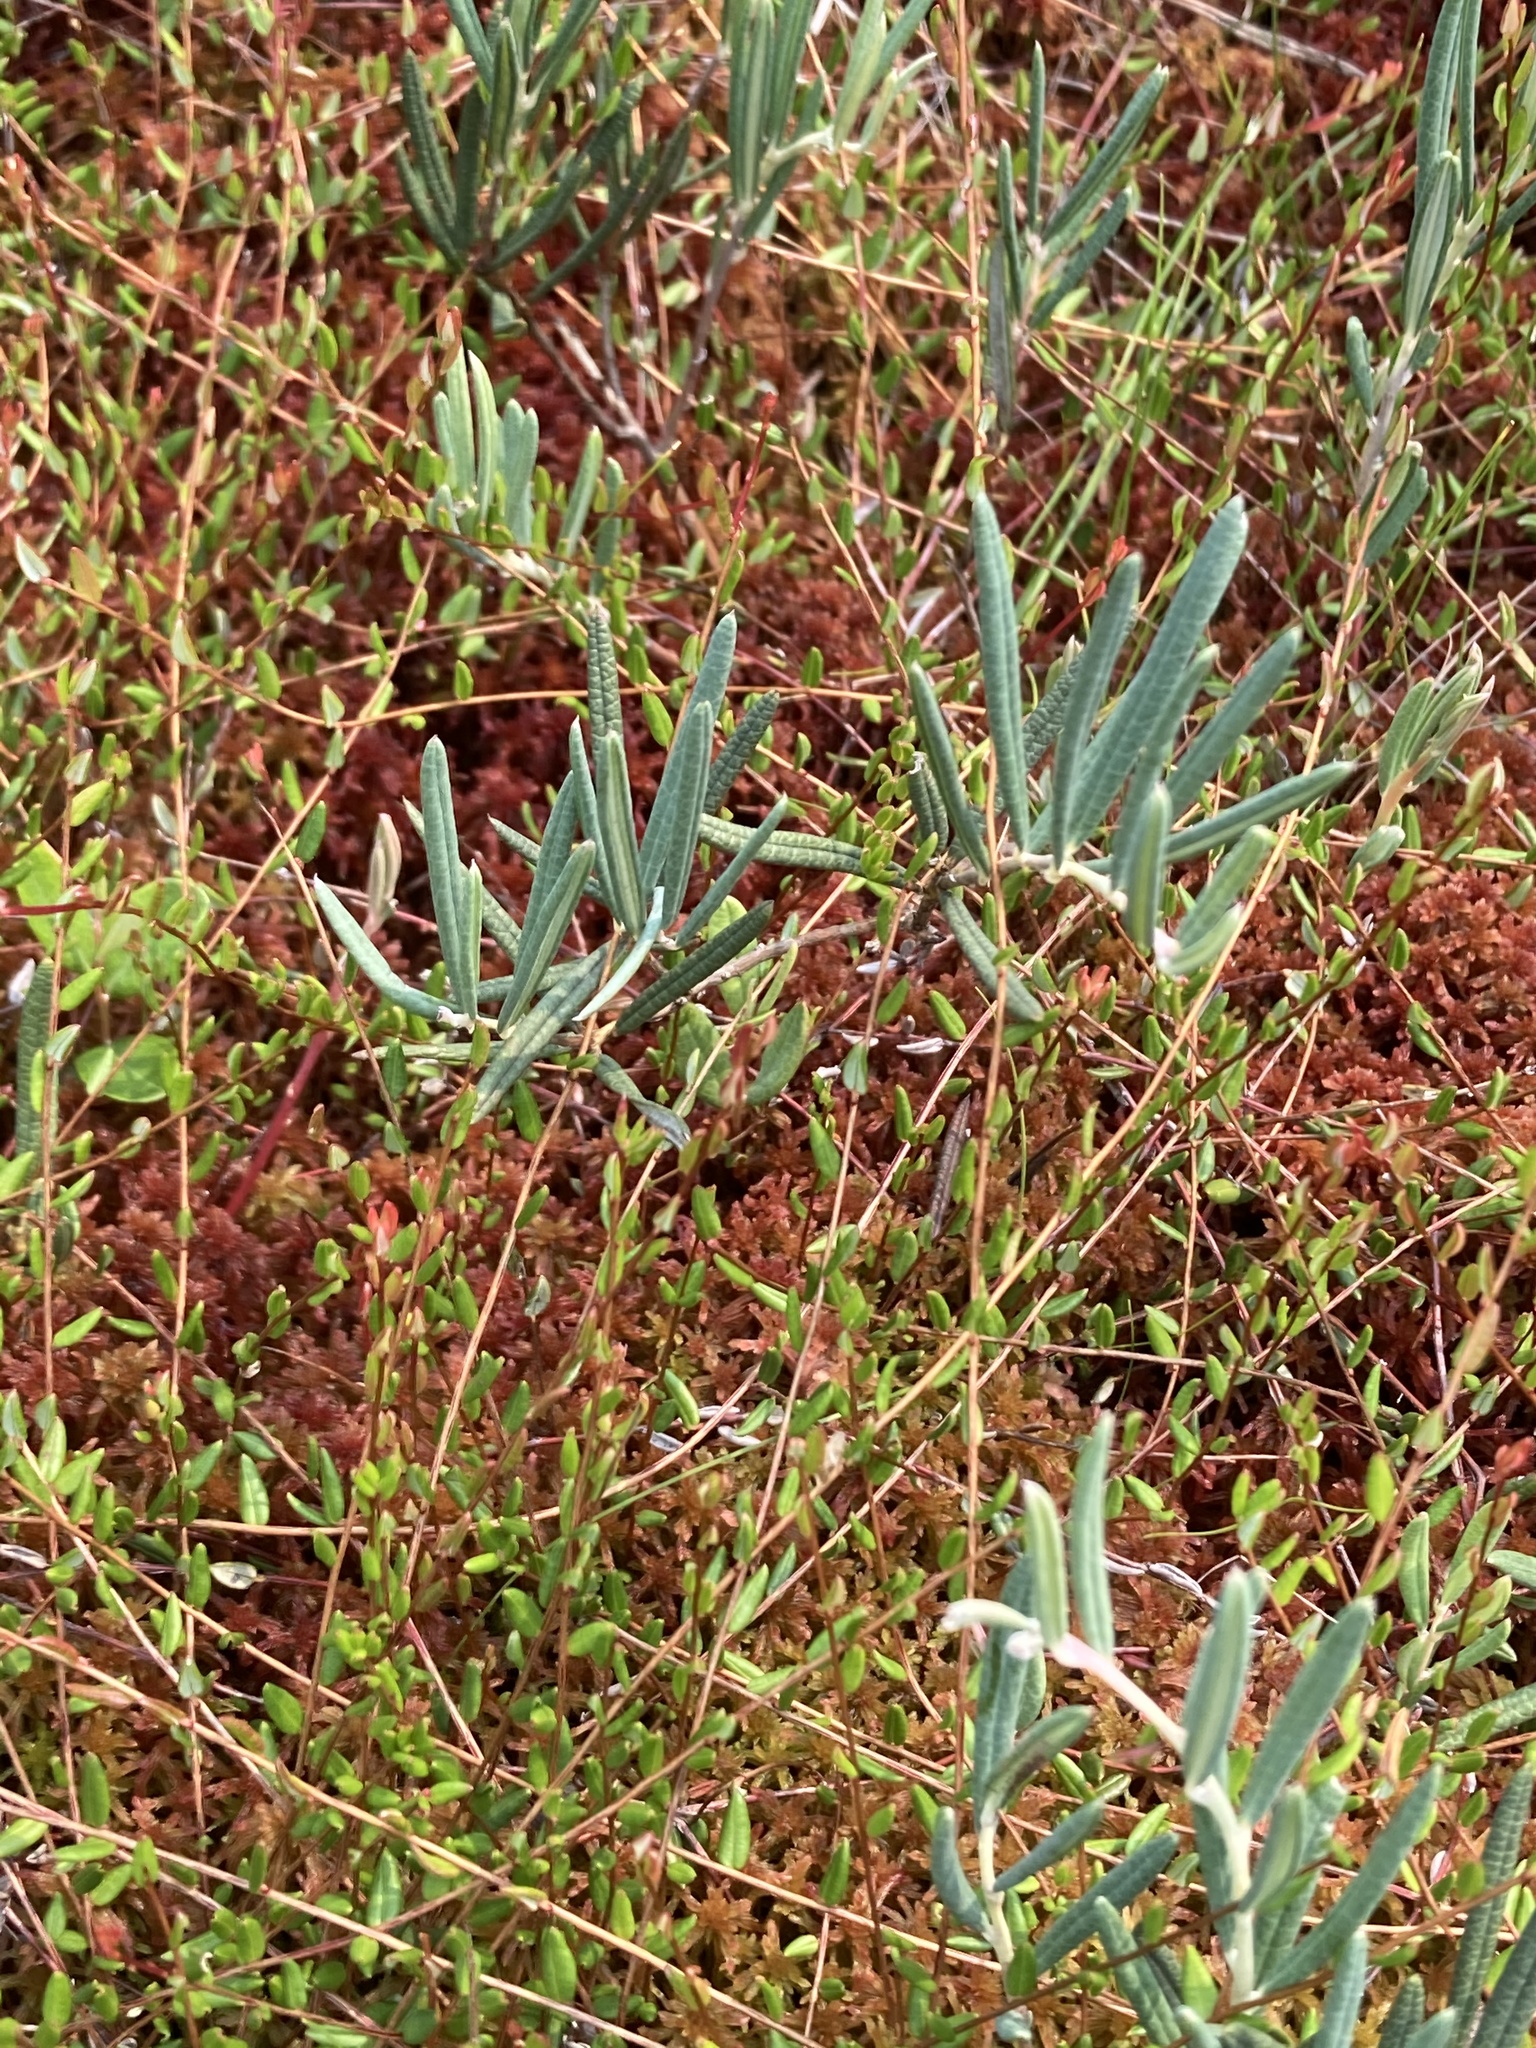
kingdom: Plantae
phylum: Tracheophyta
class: Magnoliopsida
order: Ericales
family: Ericaceae
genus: Andromeda
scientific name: Andromeda polifolia
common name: Bog-rosemary
